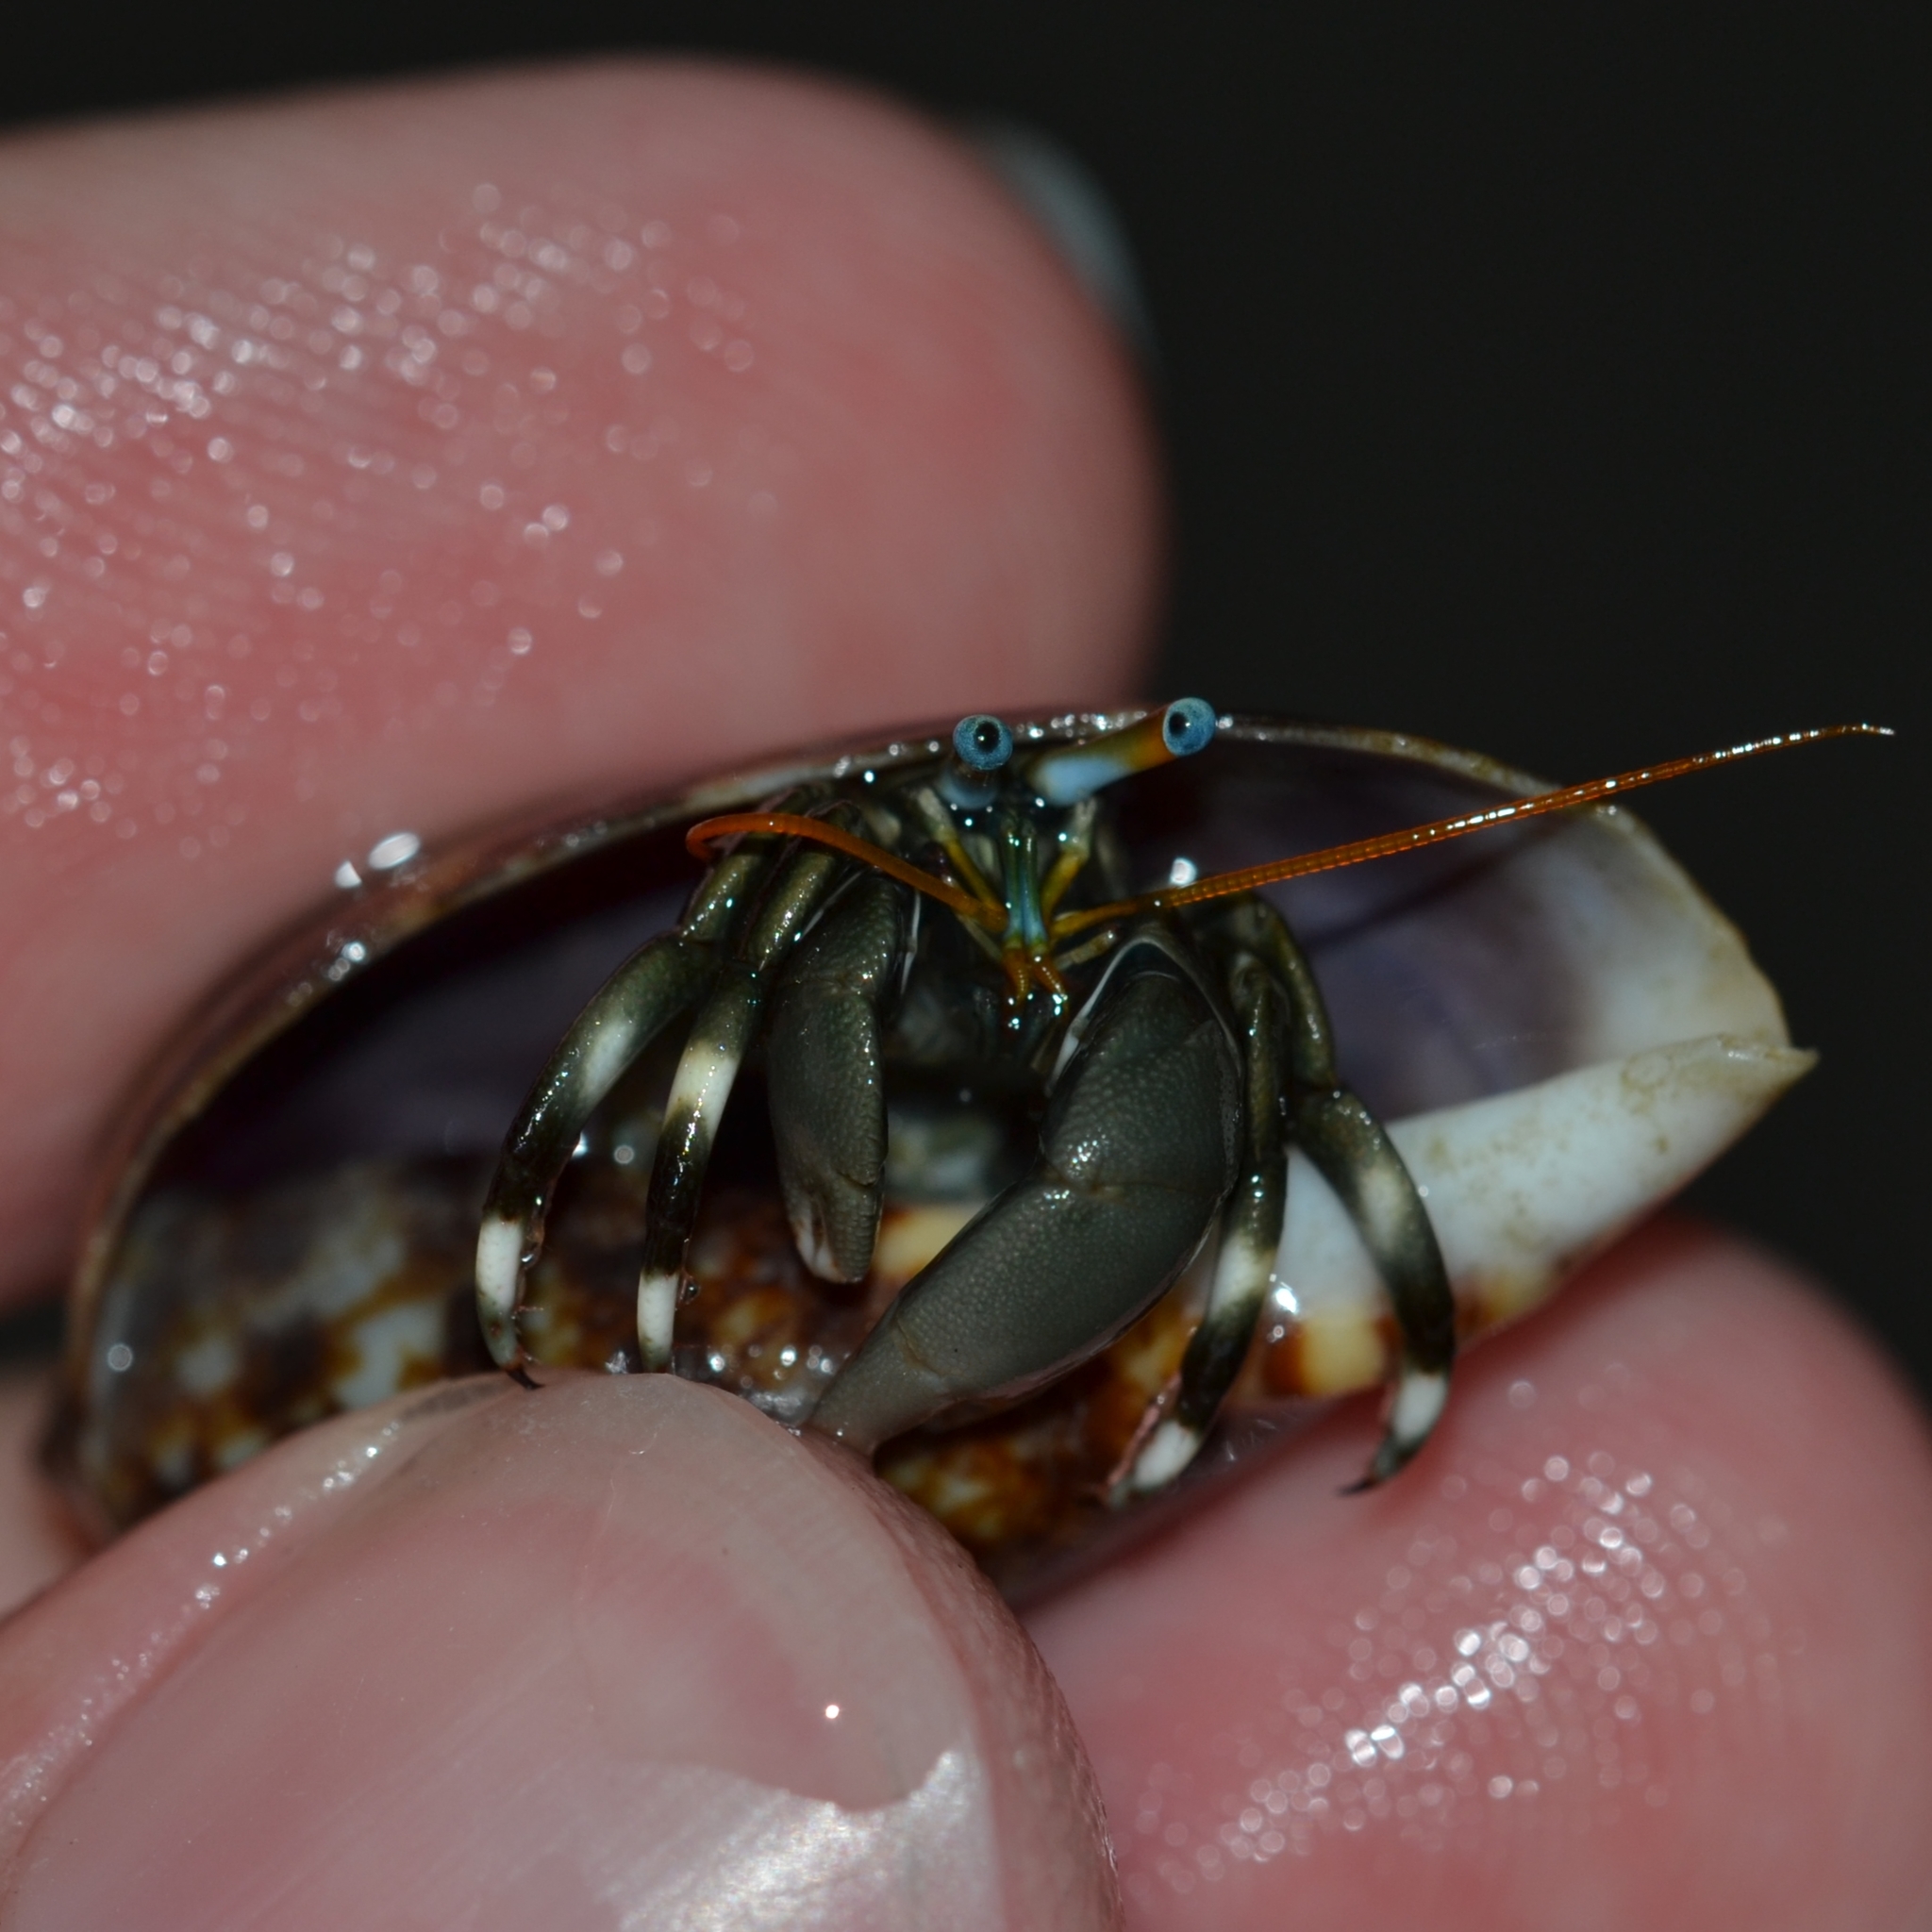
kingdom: Animalia
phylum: Arthropoda
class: Malacostraca
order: Decapoda
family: Diogenidae
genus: Calcinus
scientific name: Calcinus seurati
